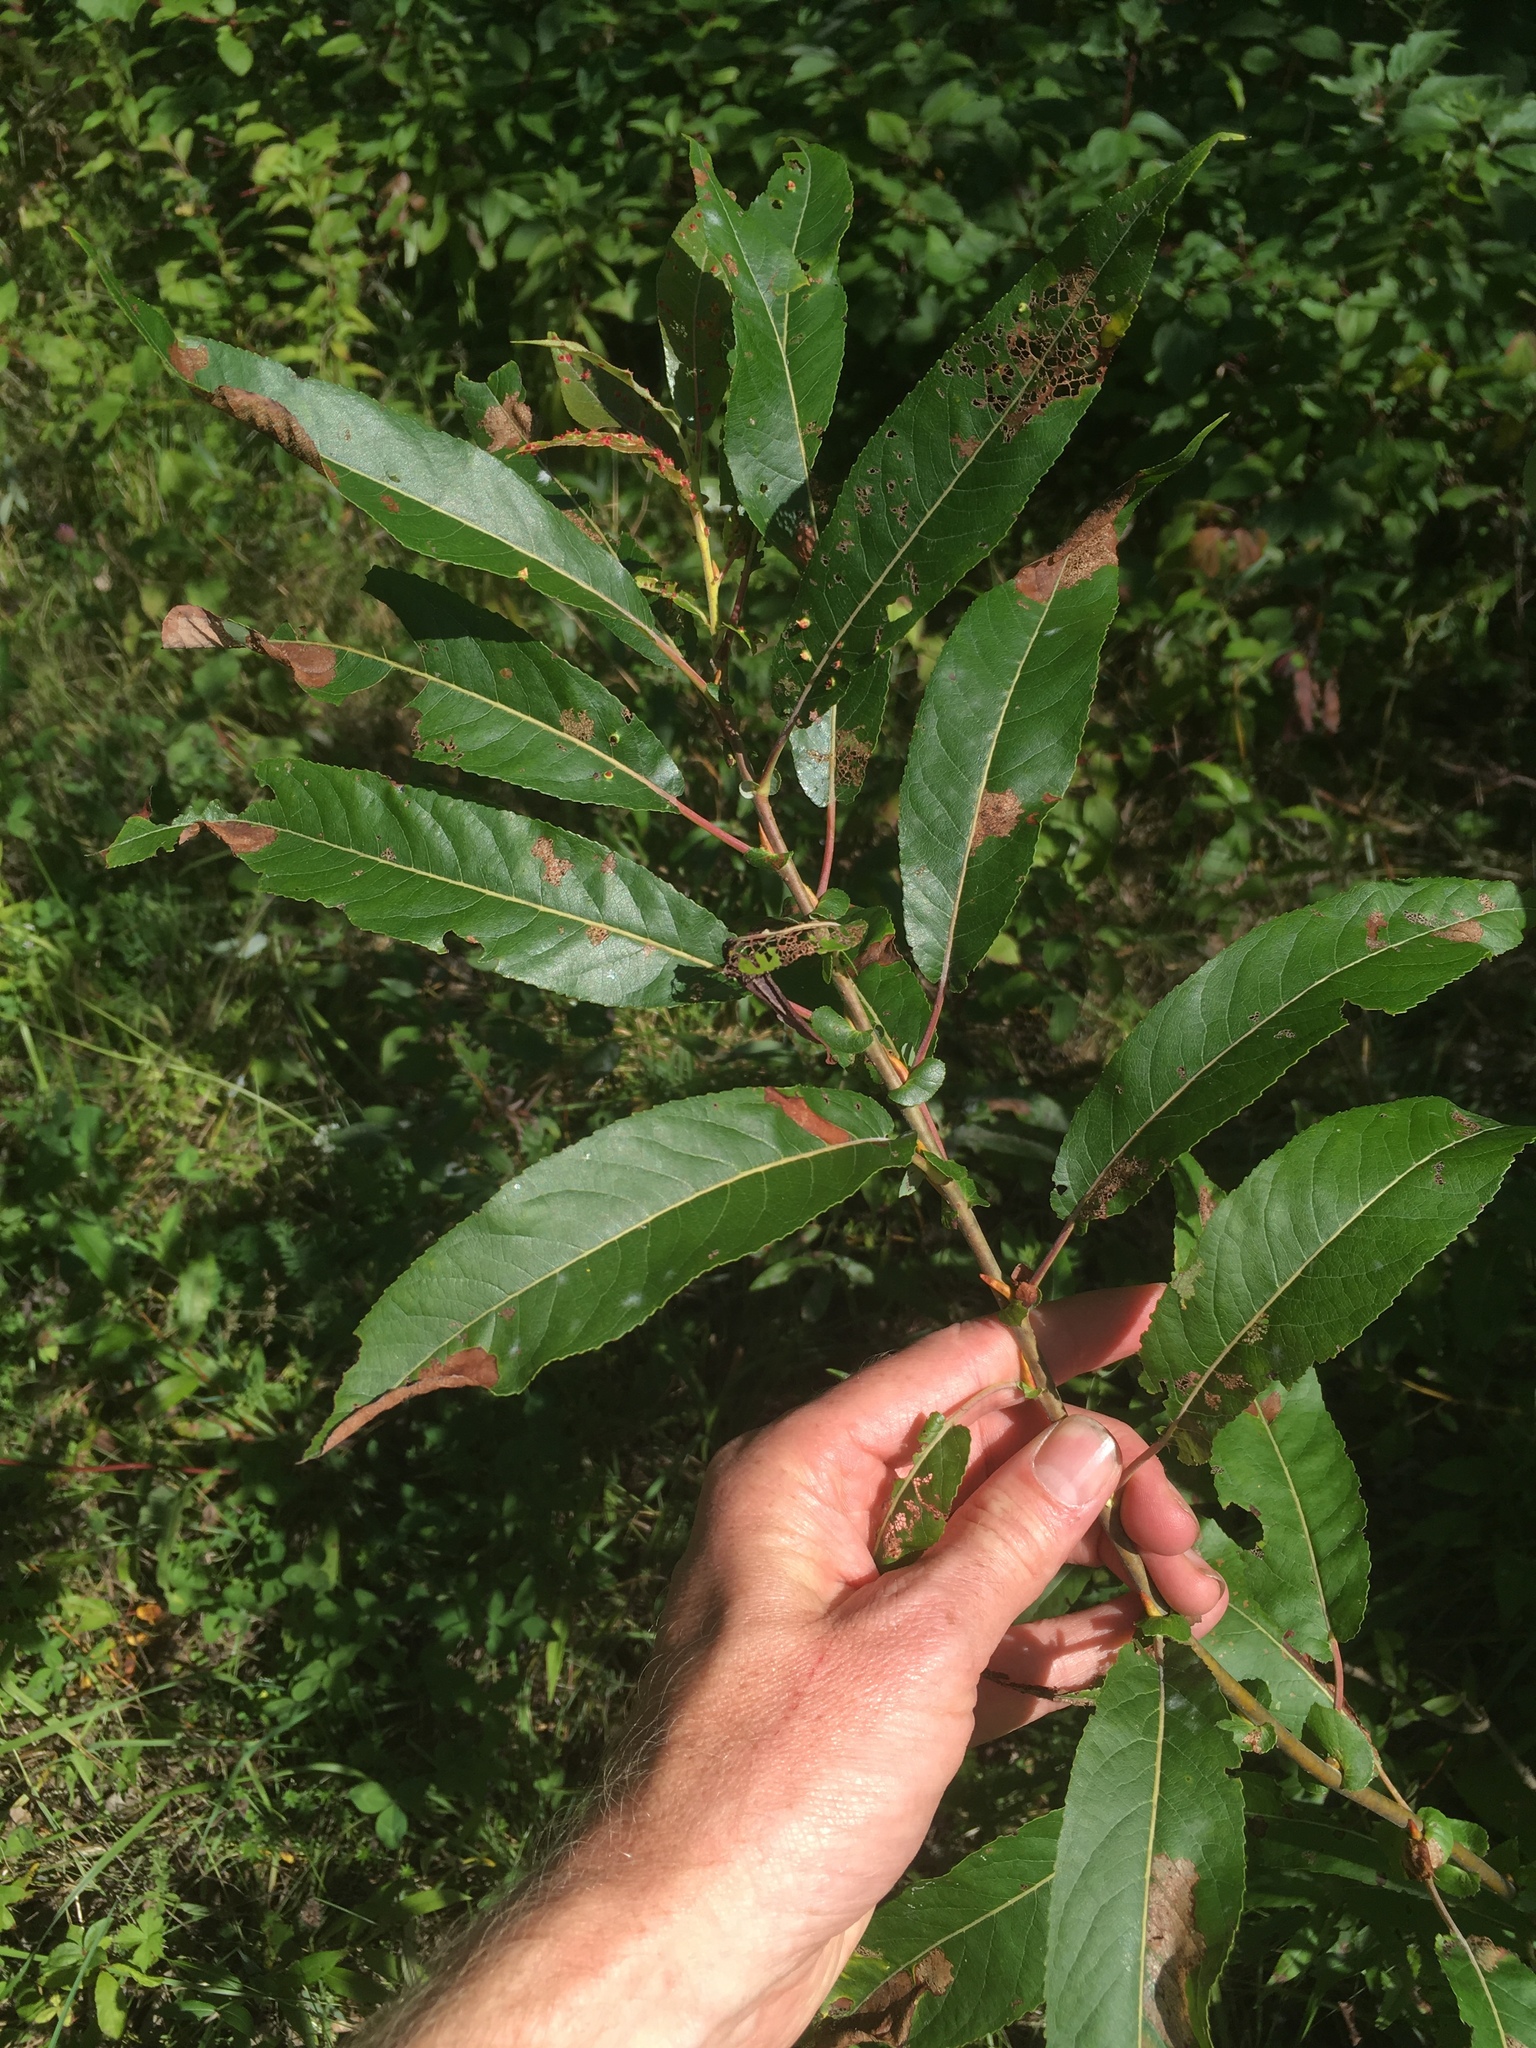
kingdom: Plantae
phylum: Tracheophyta
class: Magnoliopsida
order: Malpighiales
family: Salicaceae
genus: Salix
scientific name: Salix eriocephala
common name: Heart-leaved willow
